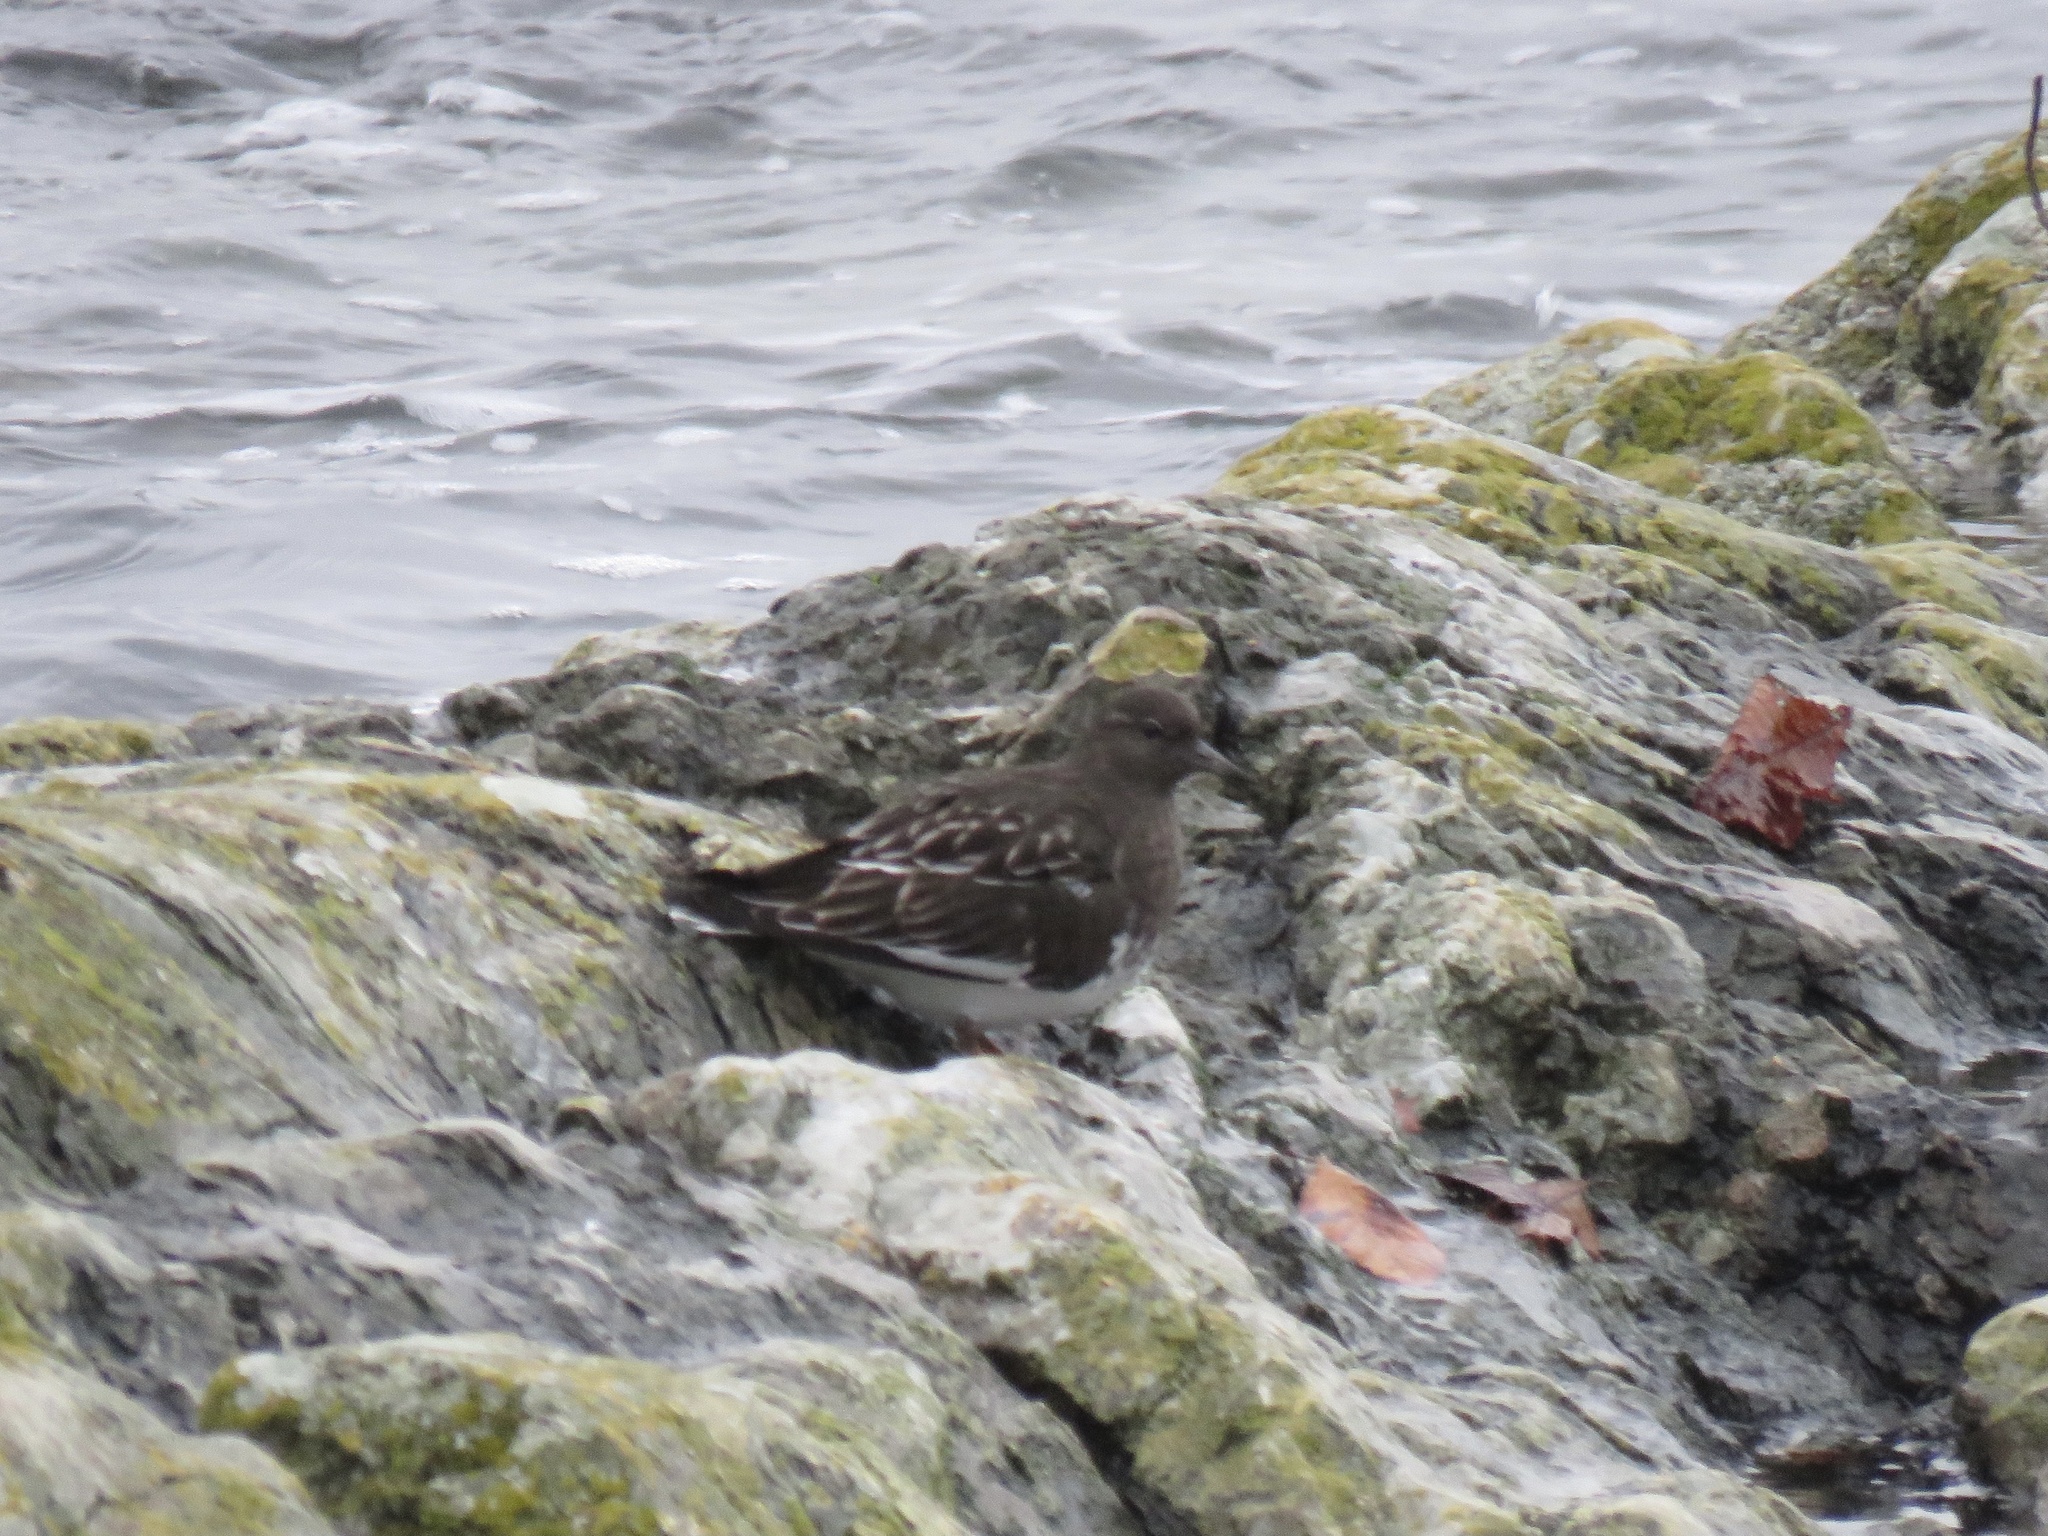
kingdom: Animalia
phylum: Chordata
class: Aves
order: Charadriiformes
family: Scolopacidae
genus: Arenaria
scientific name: Arenaria melanocephala
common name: Black turnstone
